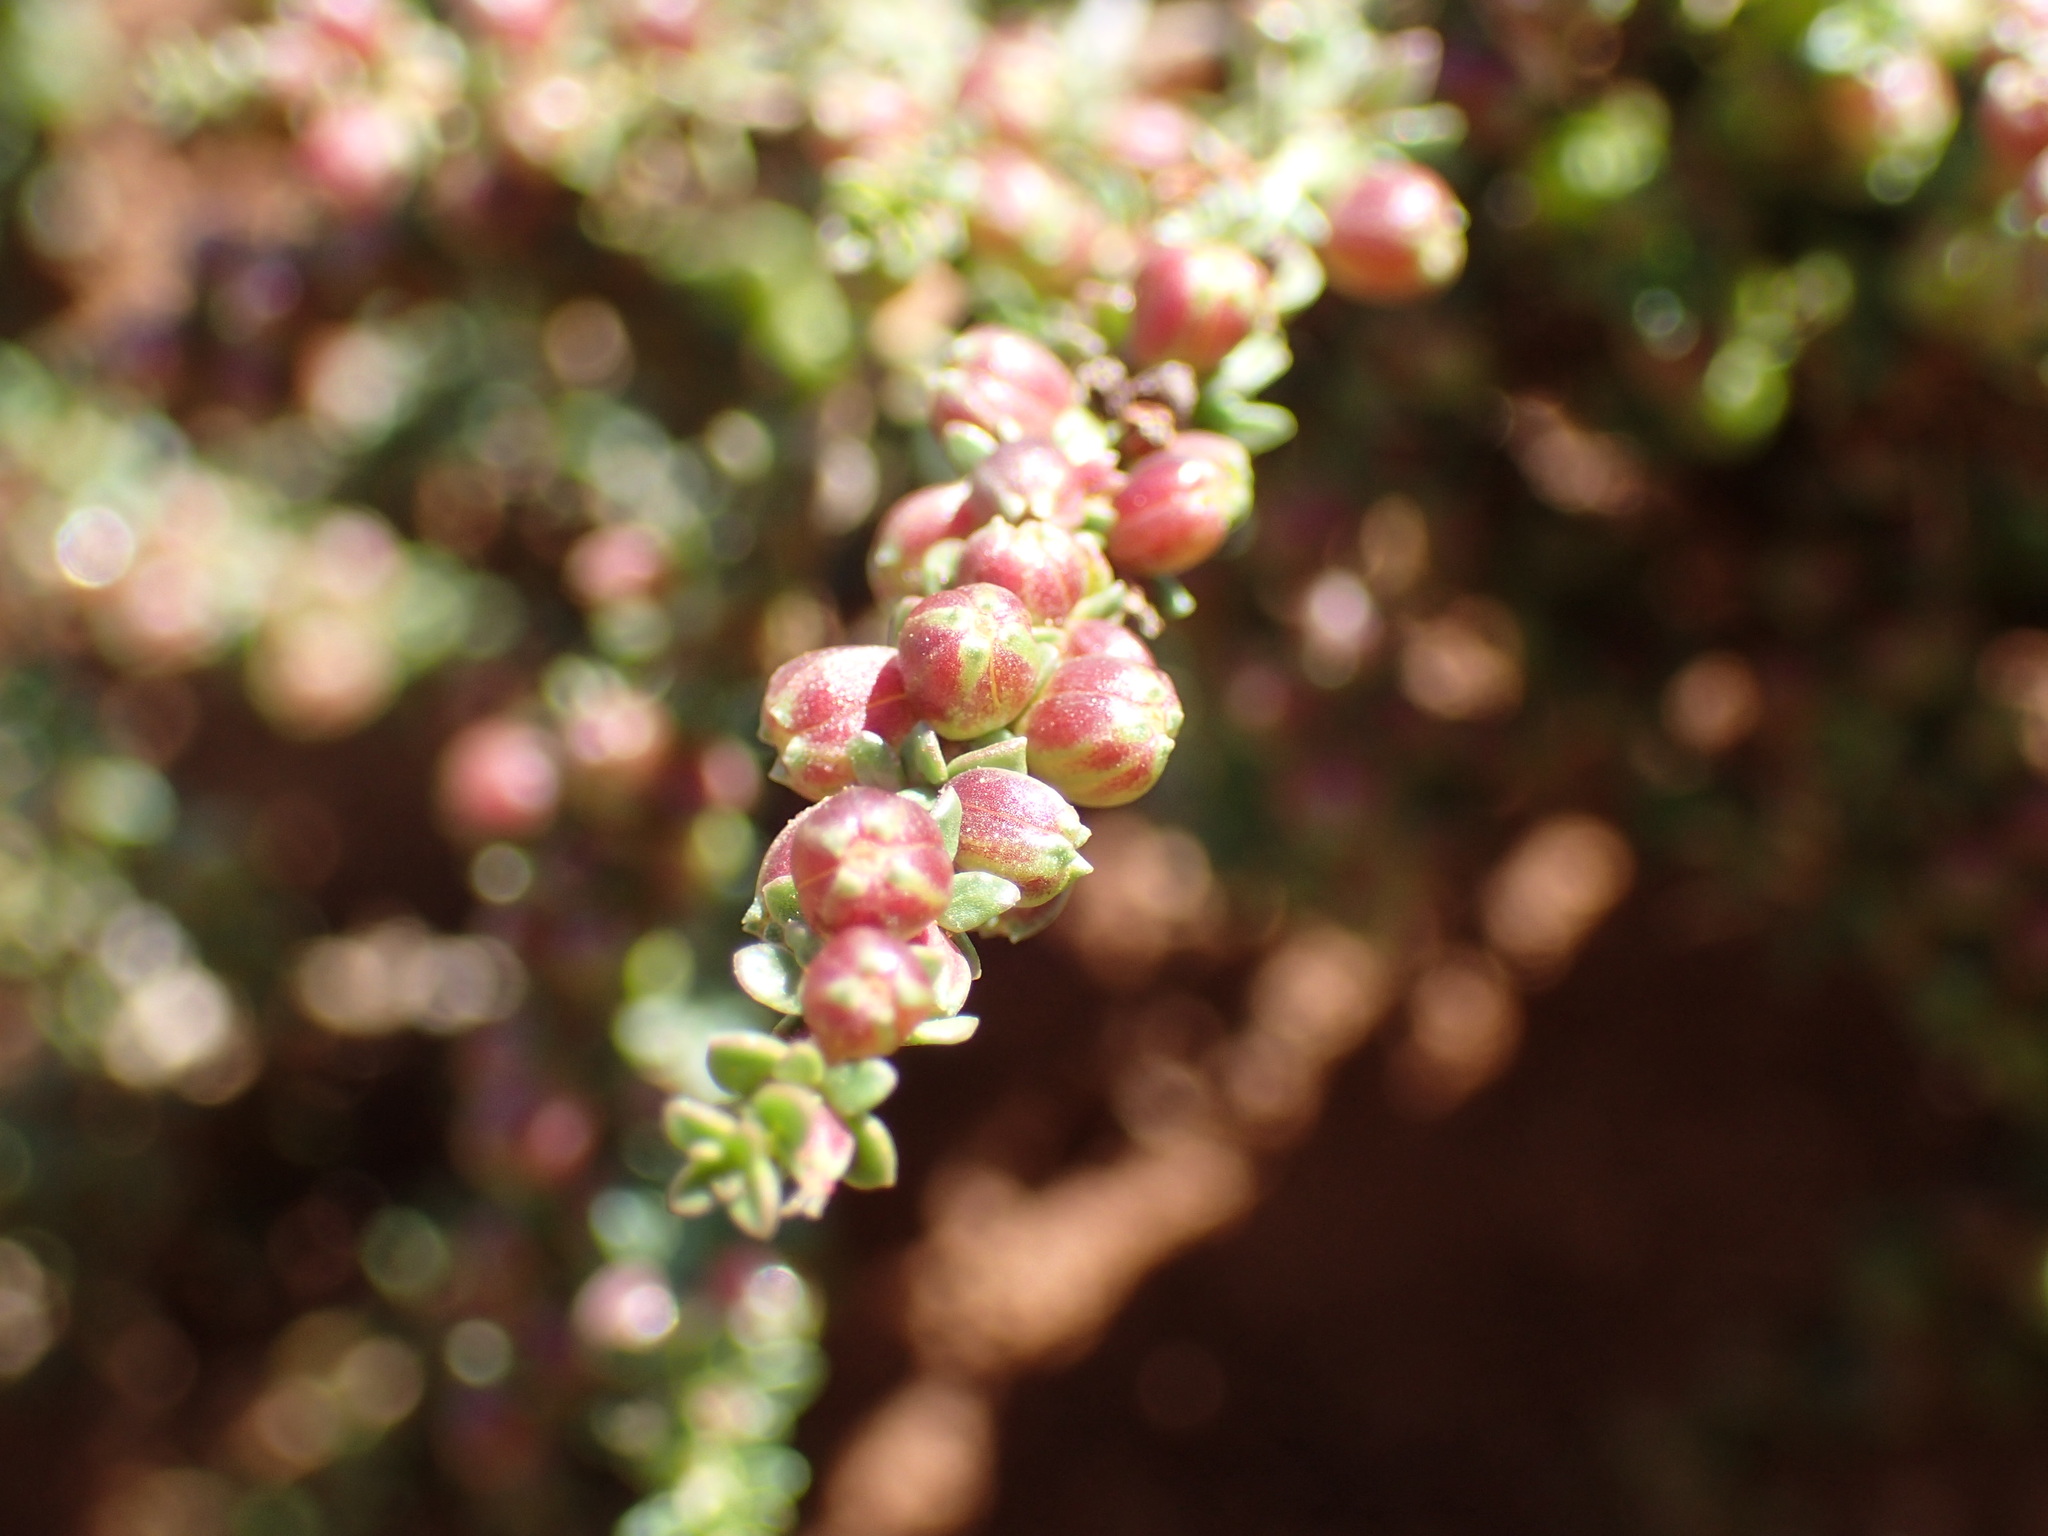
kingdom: Plantae
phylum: Tracheophyta
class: Magnoliopsida
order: Gentianales
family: Rubiaceae
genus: Nenax
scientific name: Nenax microphylla
